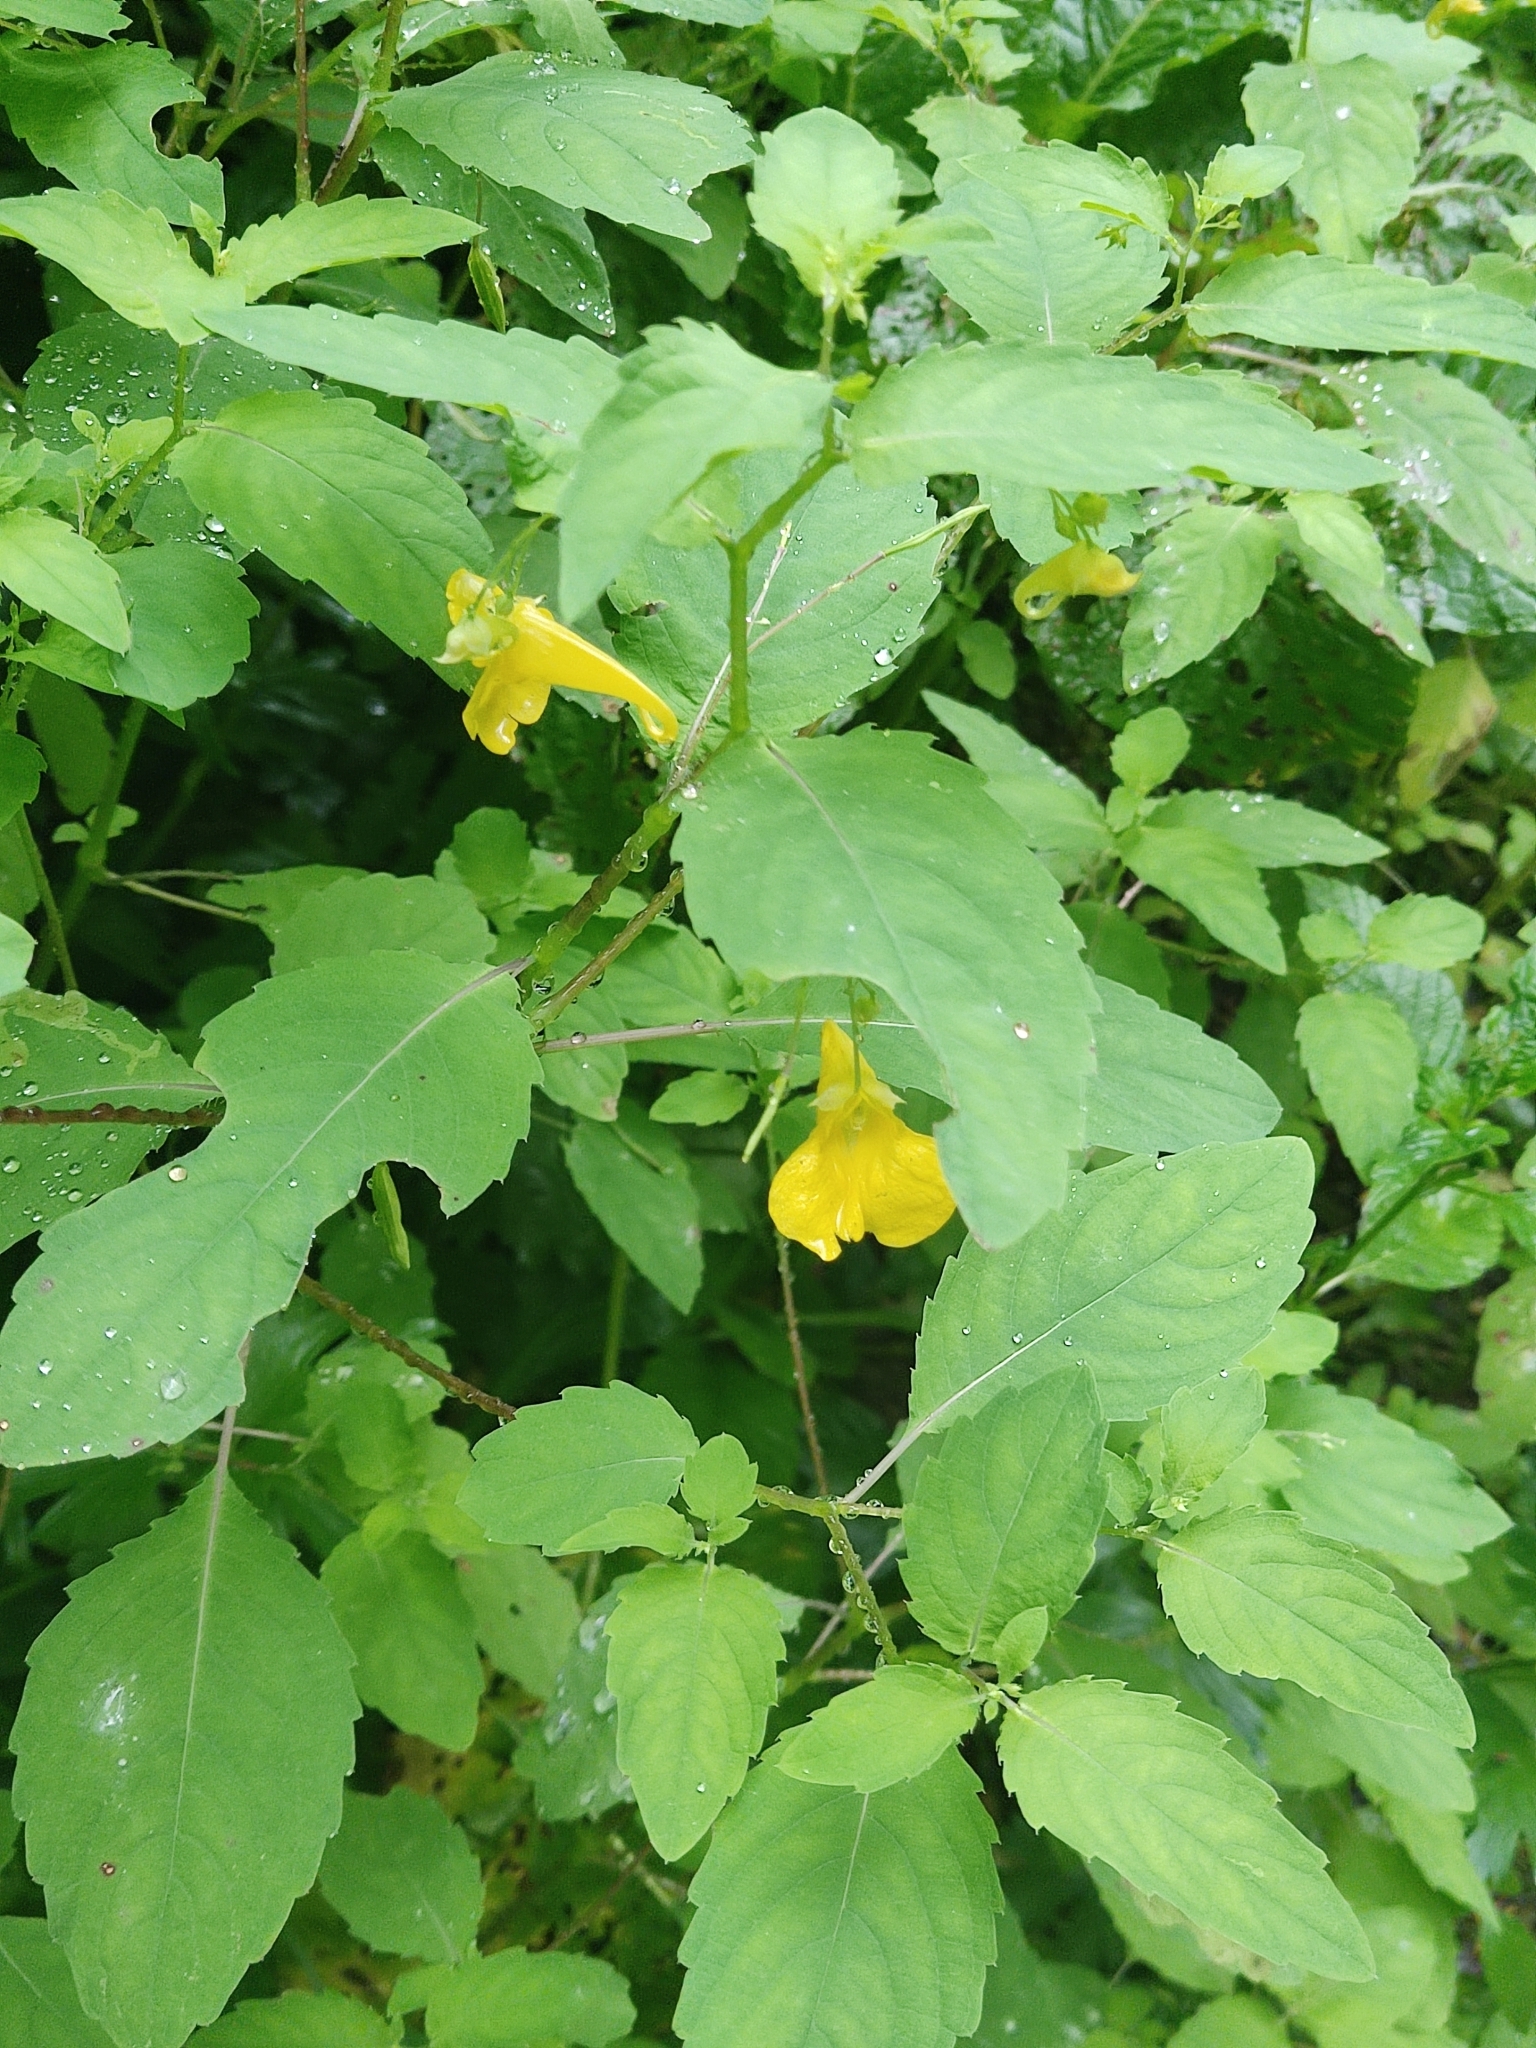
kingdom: Plantae
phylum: Tracheophyta
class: Magnoliopsida
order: Ericales
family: Balsaminaceae
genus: Impatiens
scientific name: Impatiens noli-tangere
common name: Touch-me-not balsam
